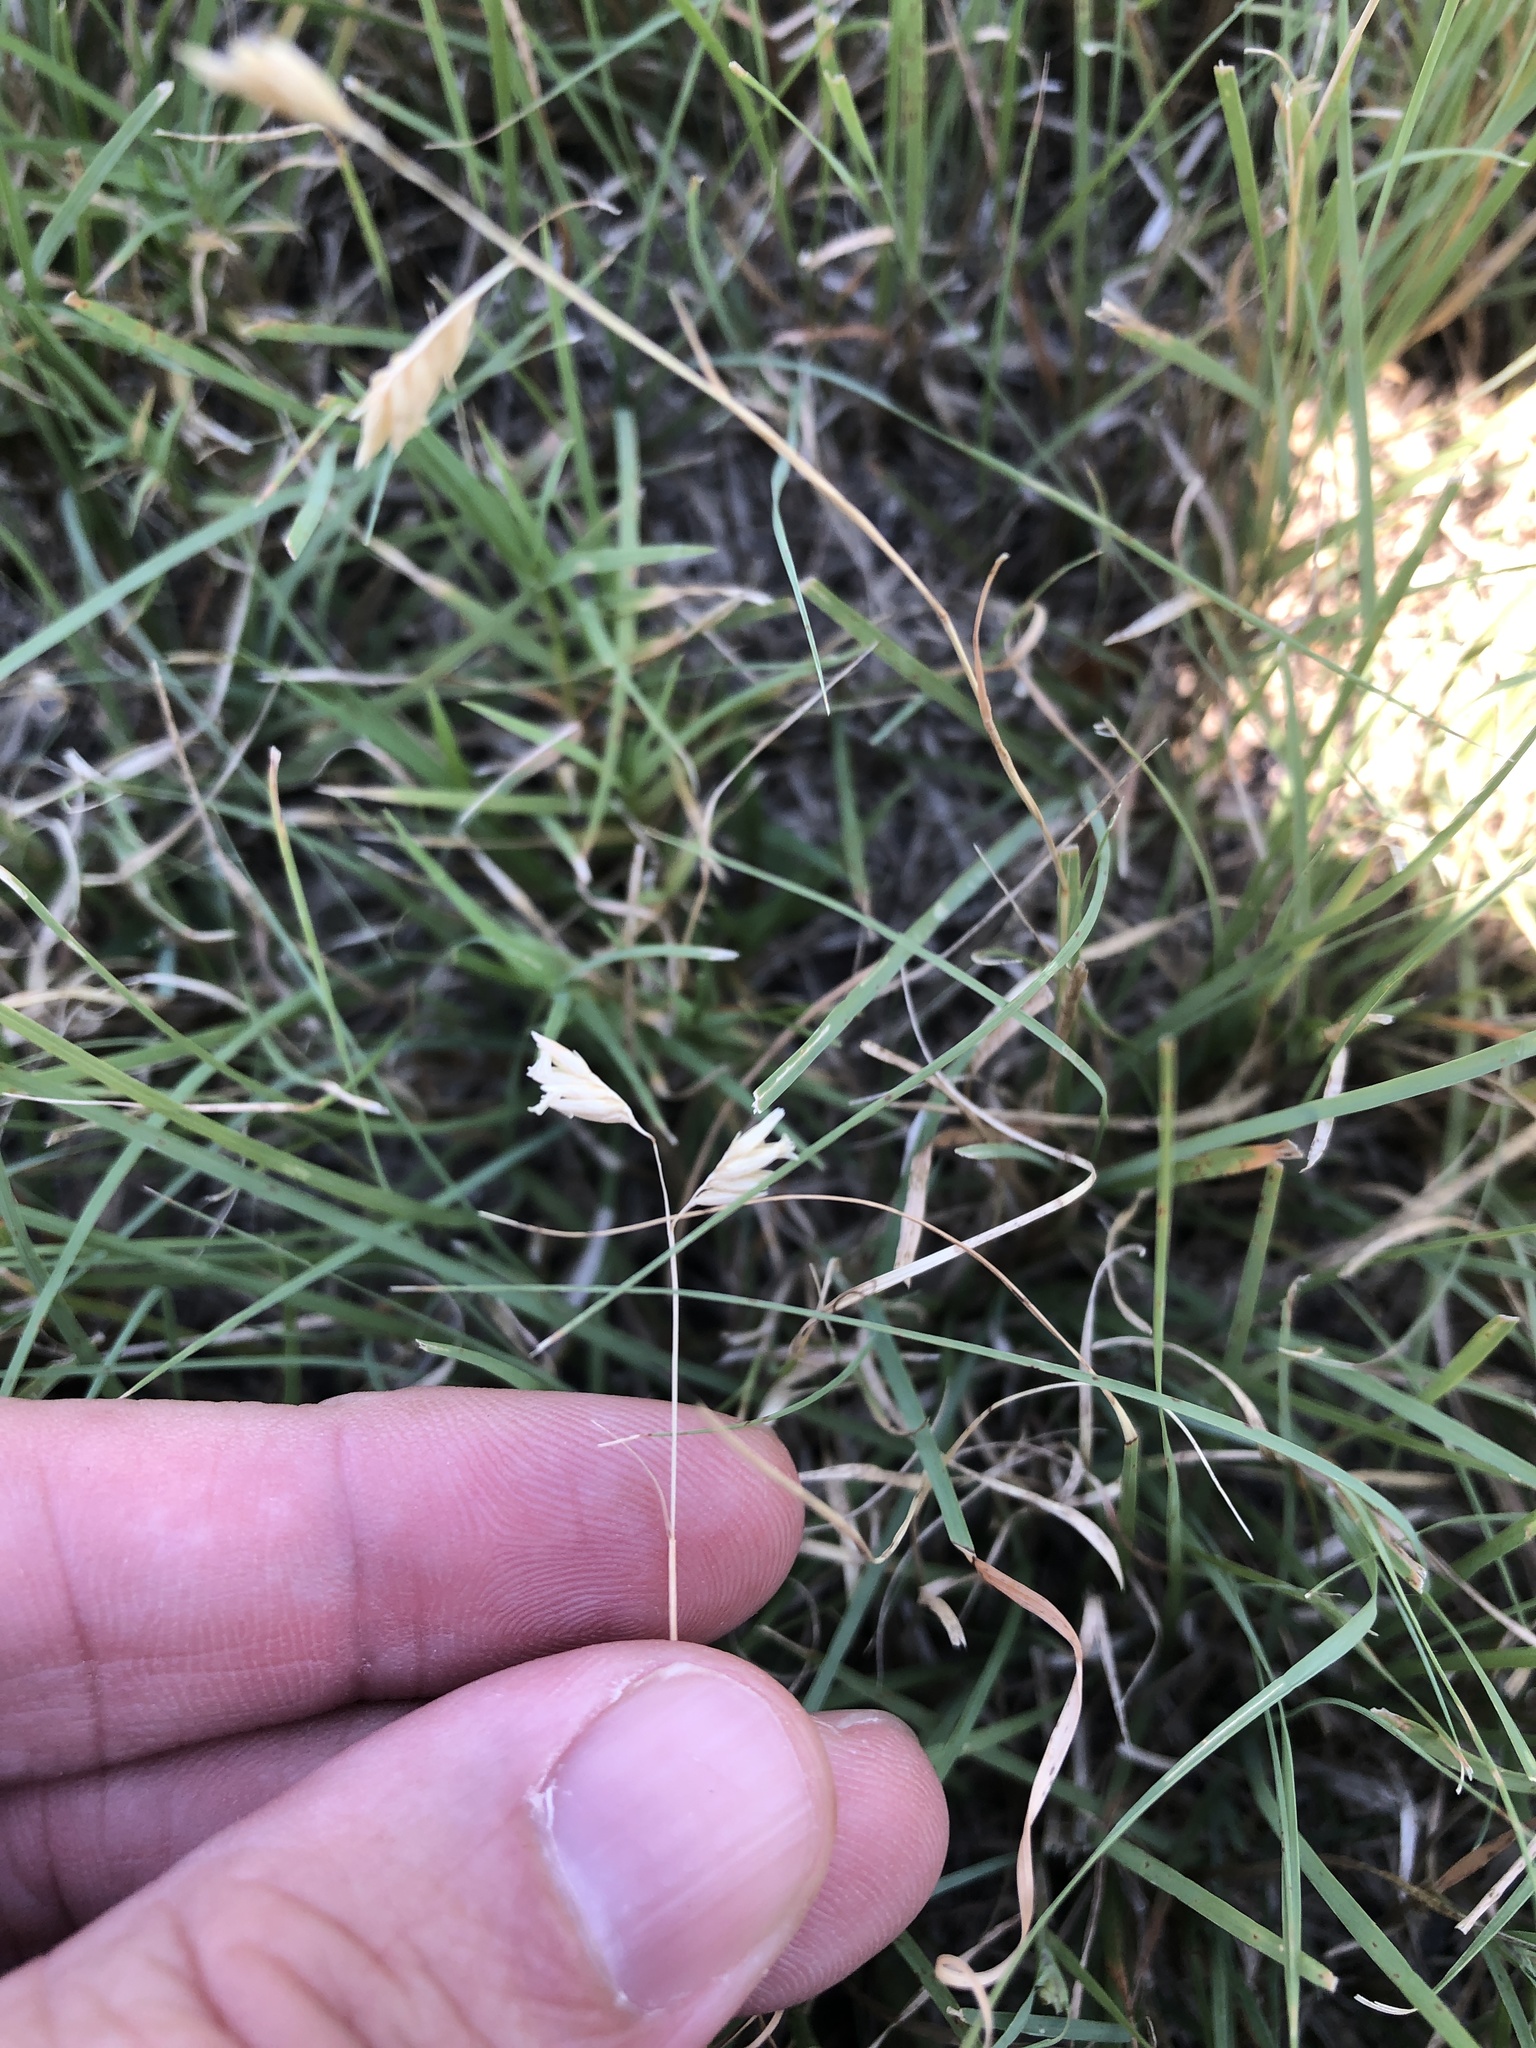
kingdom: Plantae
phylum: Tracheophyta
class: Liliopsida
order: Poales
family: Poaceae
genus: Bouteloua
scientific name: Bouteloua dactyloides
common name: Buffalo grass
